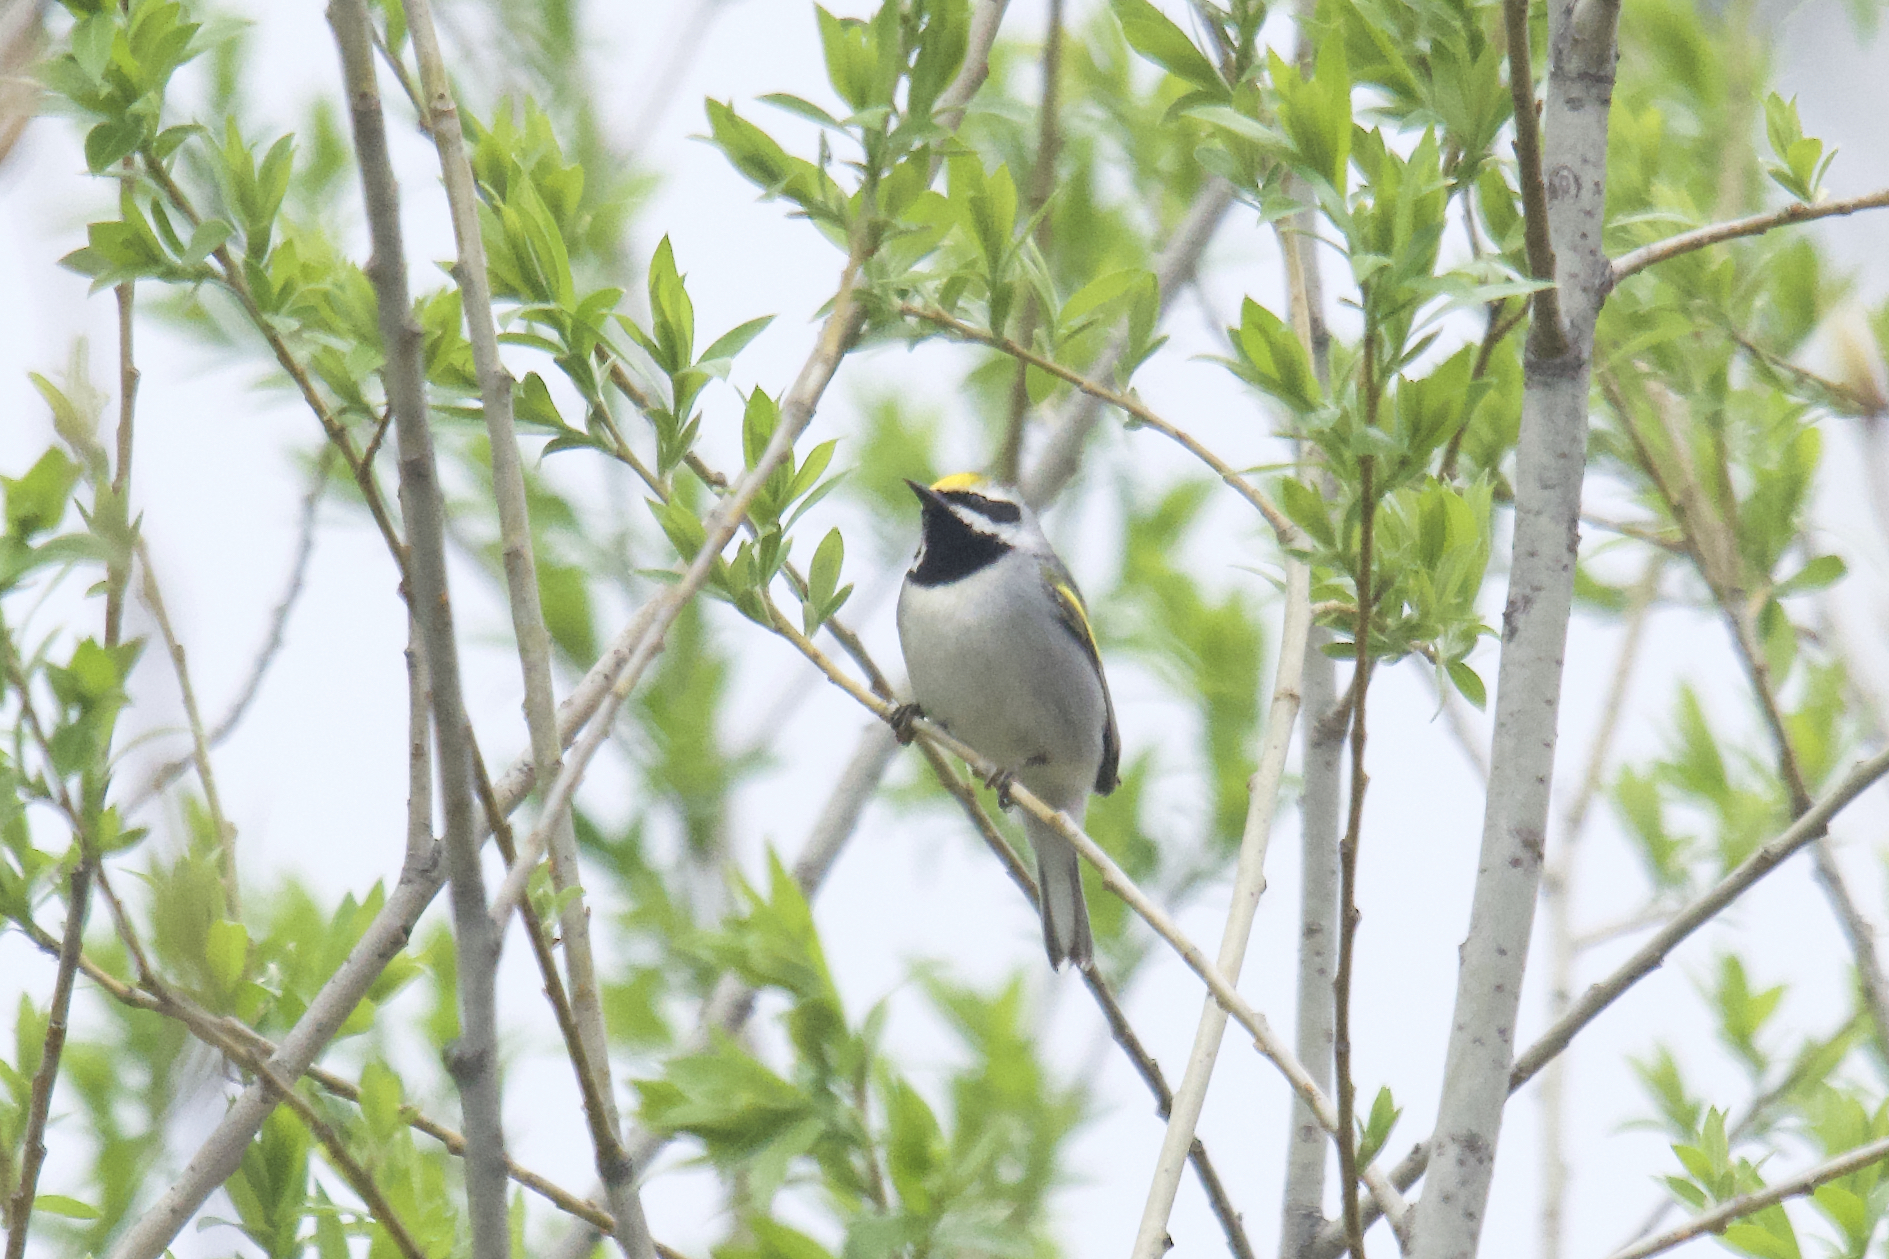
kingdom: Animalia
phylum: Chordata
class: Aves
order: Passeriformes
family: Parulidae
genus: Vermivora
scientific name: Vermivora chrysoptera
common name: Golden-winged warbler
